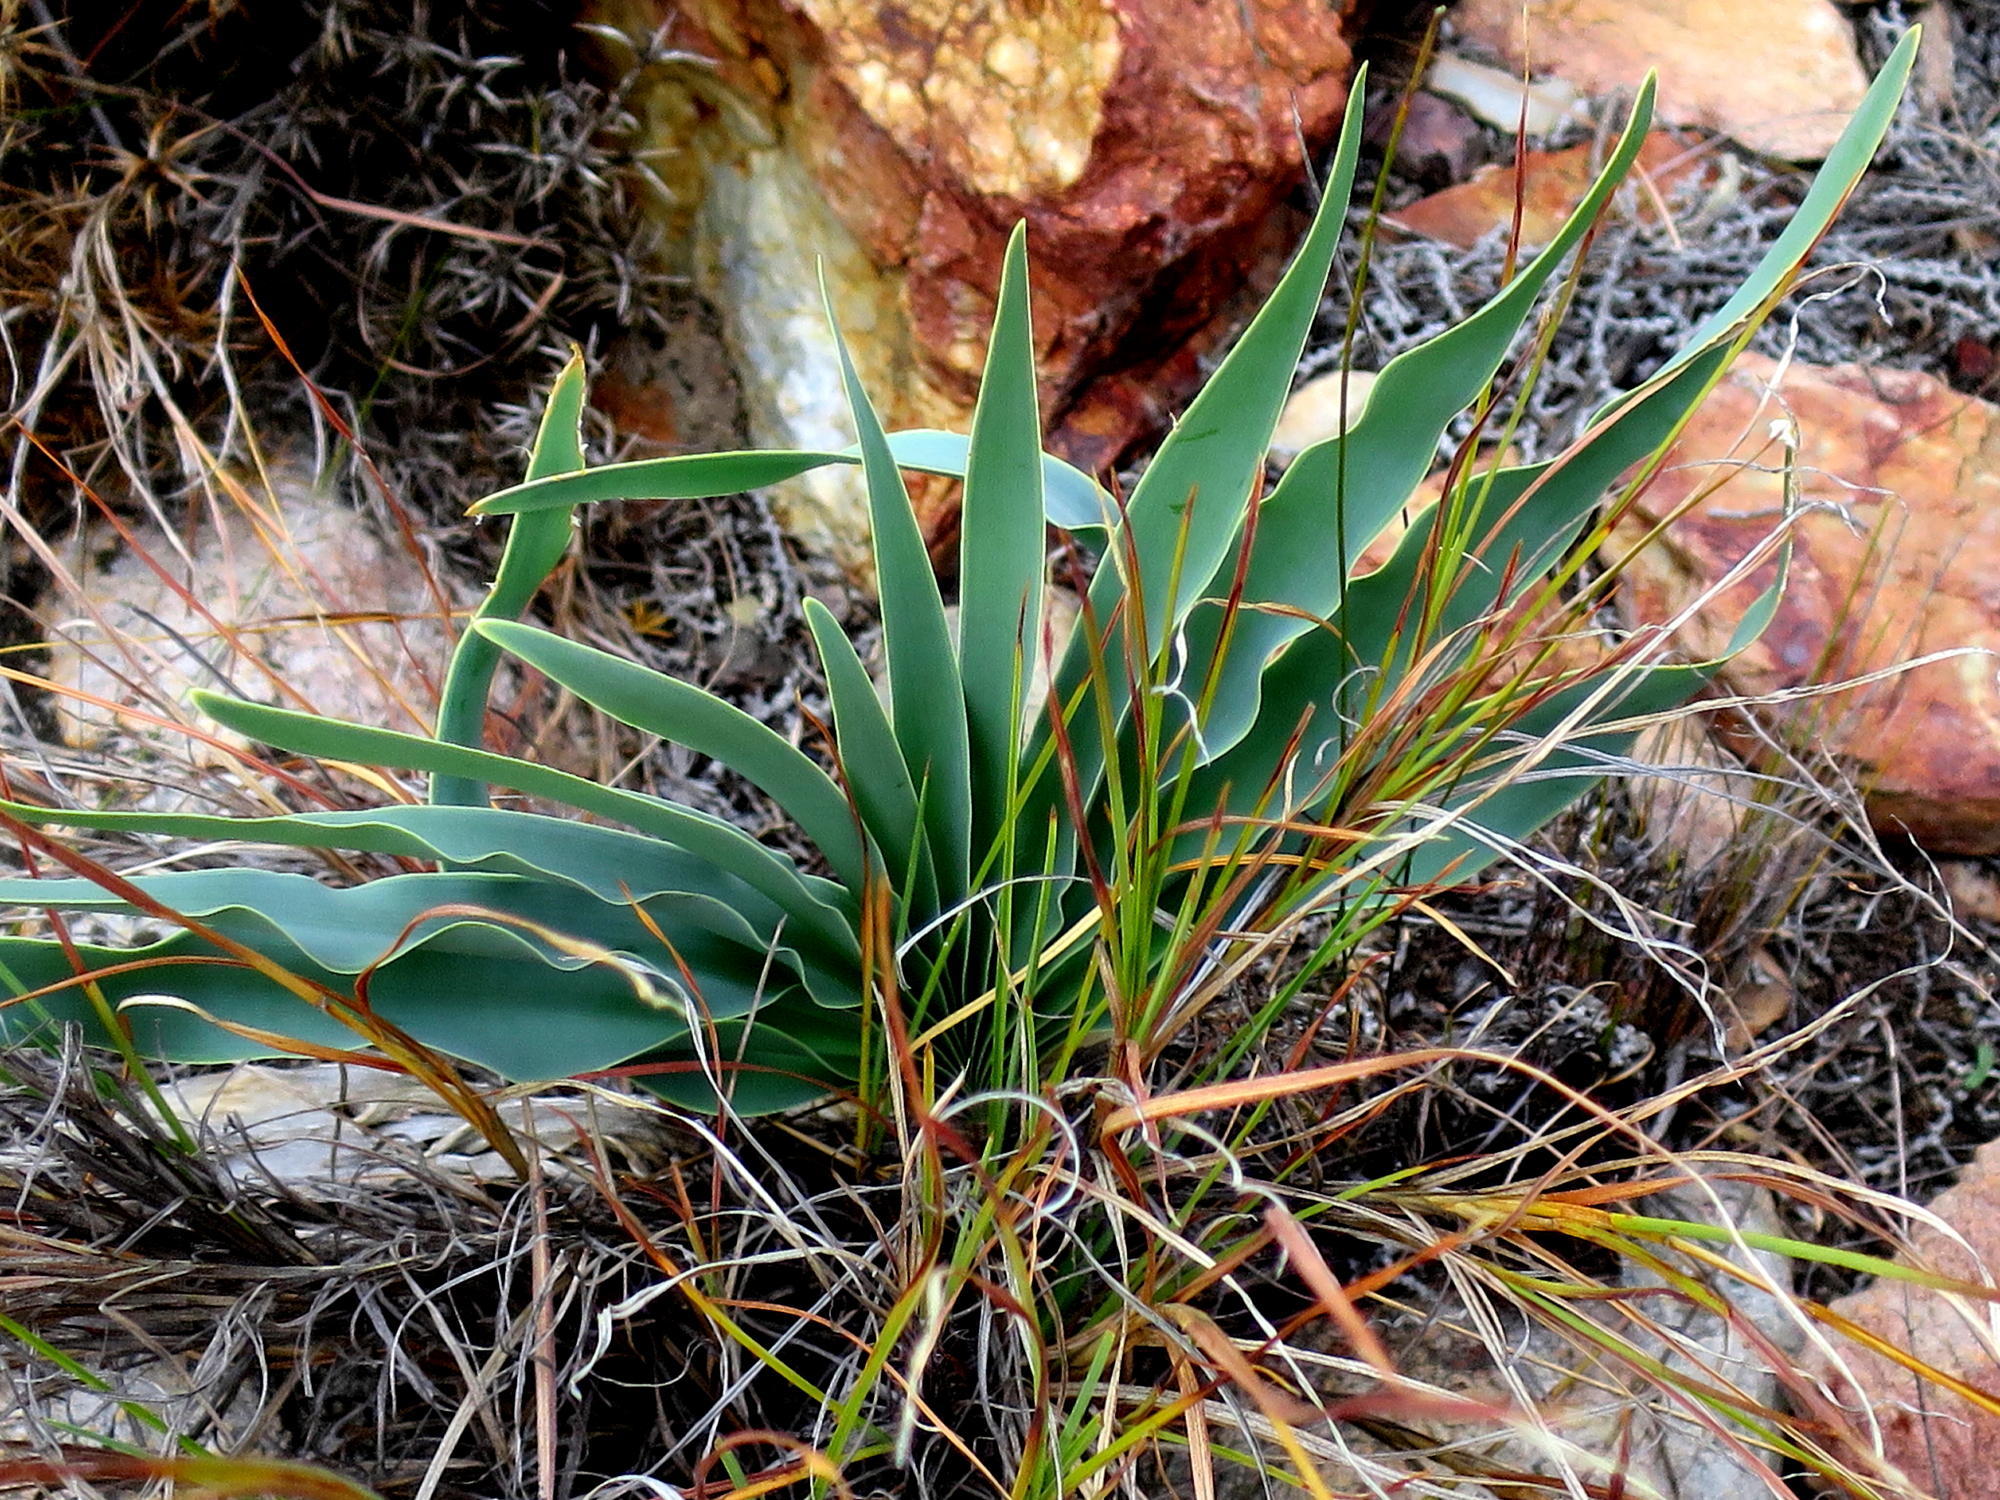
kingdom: Plantae
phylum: Tracheophyta
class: Liliopsida
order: Asparagales
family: Amaryllidaceae
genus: Boophone
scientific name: Boophone disticha
